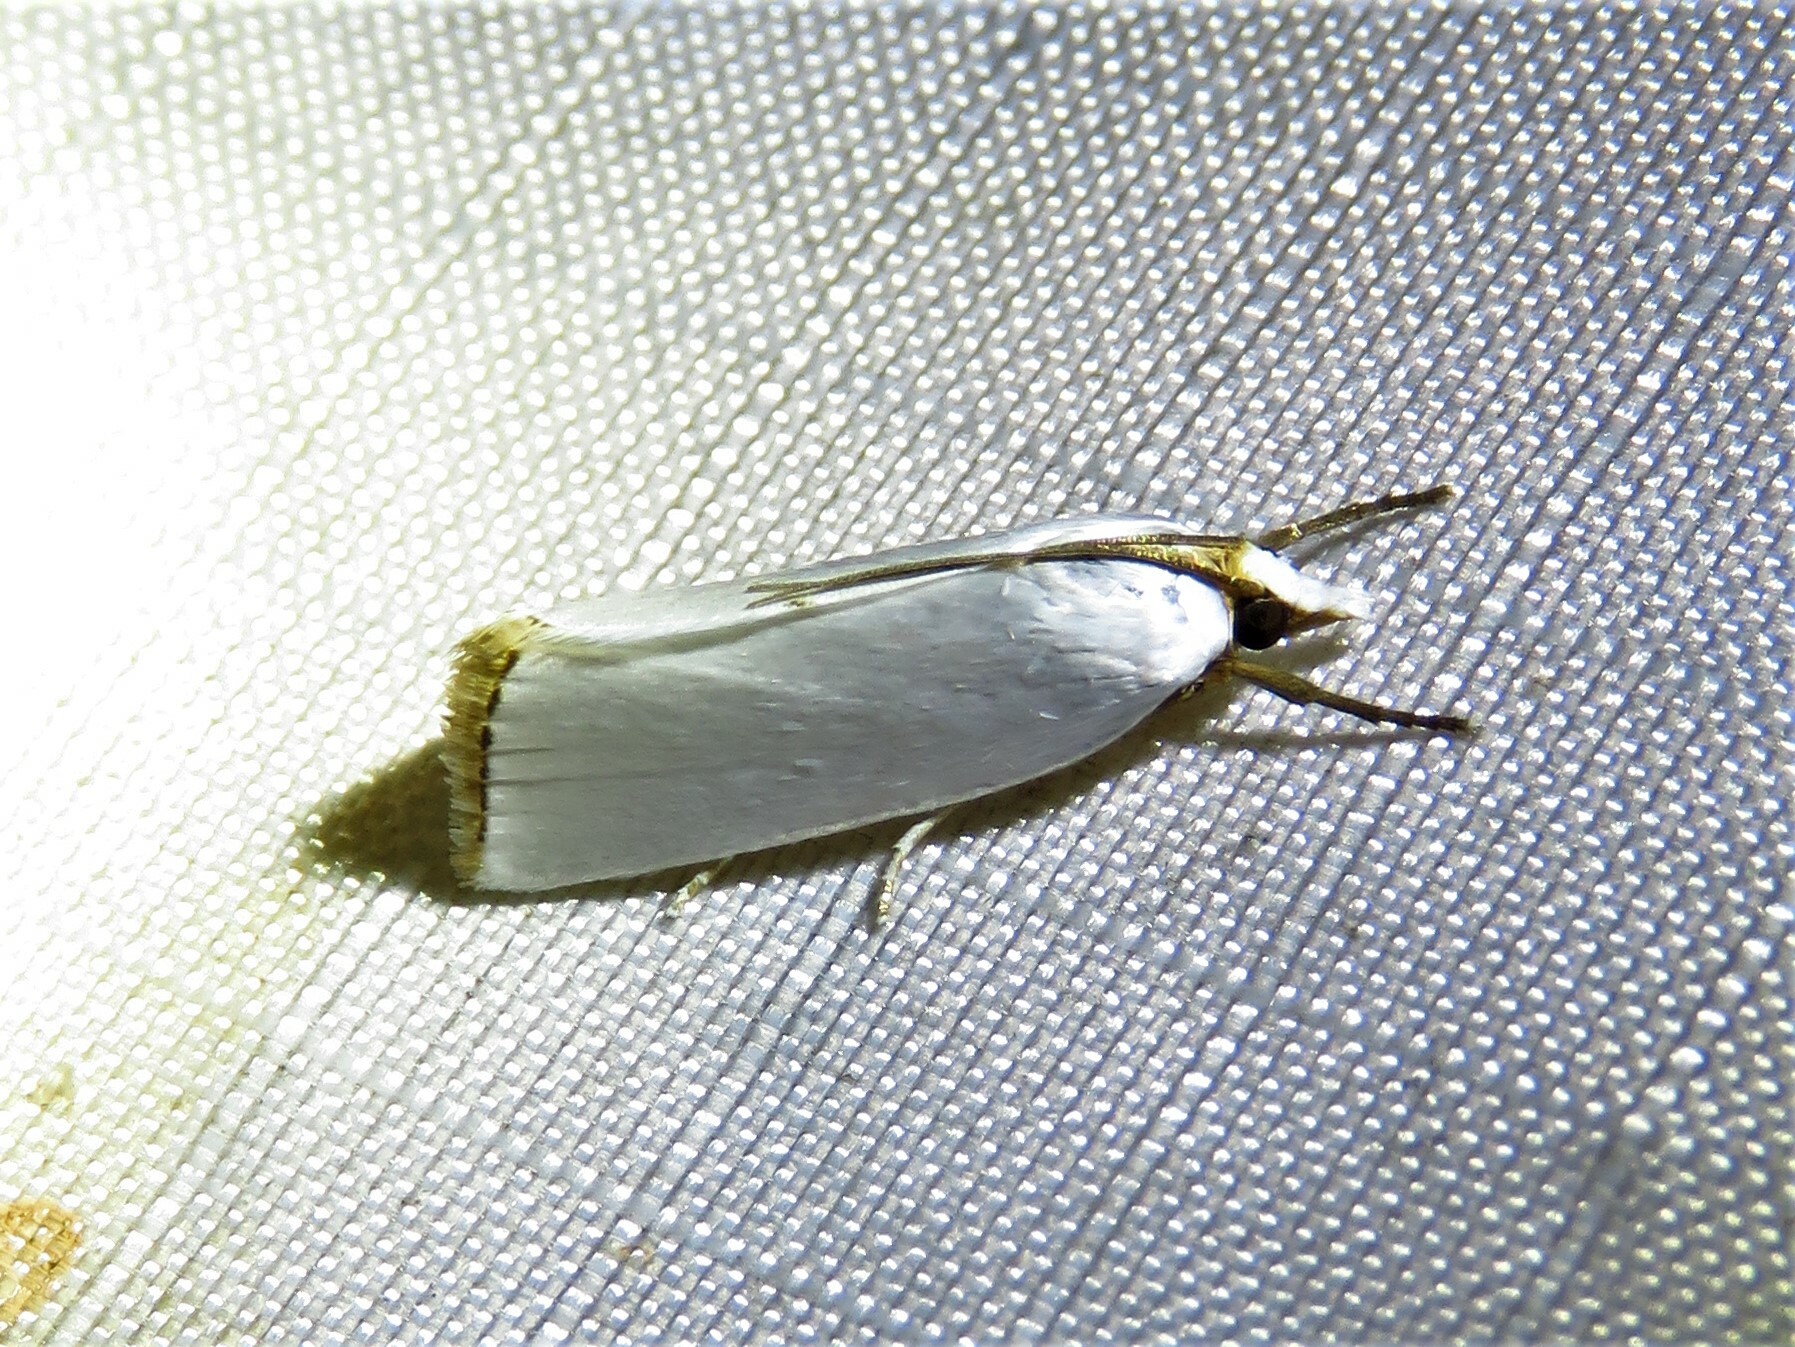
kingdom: Animalia
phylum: Arthropoda
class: Insecta
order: Lepidoptera
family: Crambidae
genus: Argyria
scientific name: Argyria nivalis
